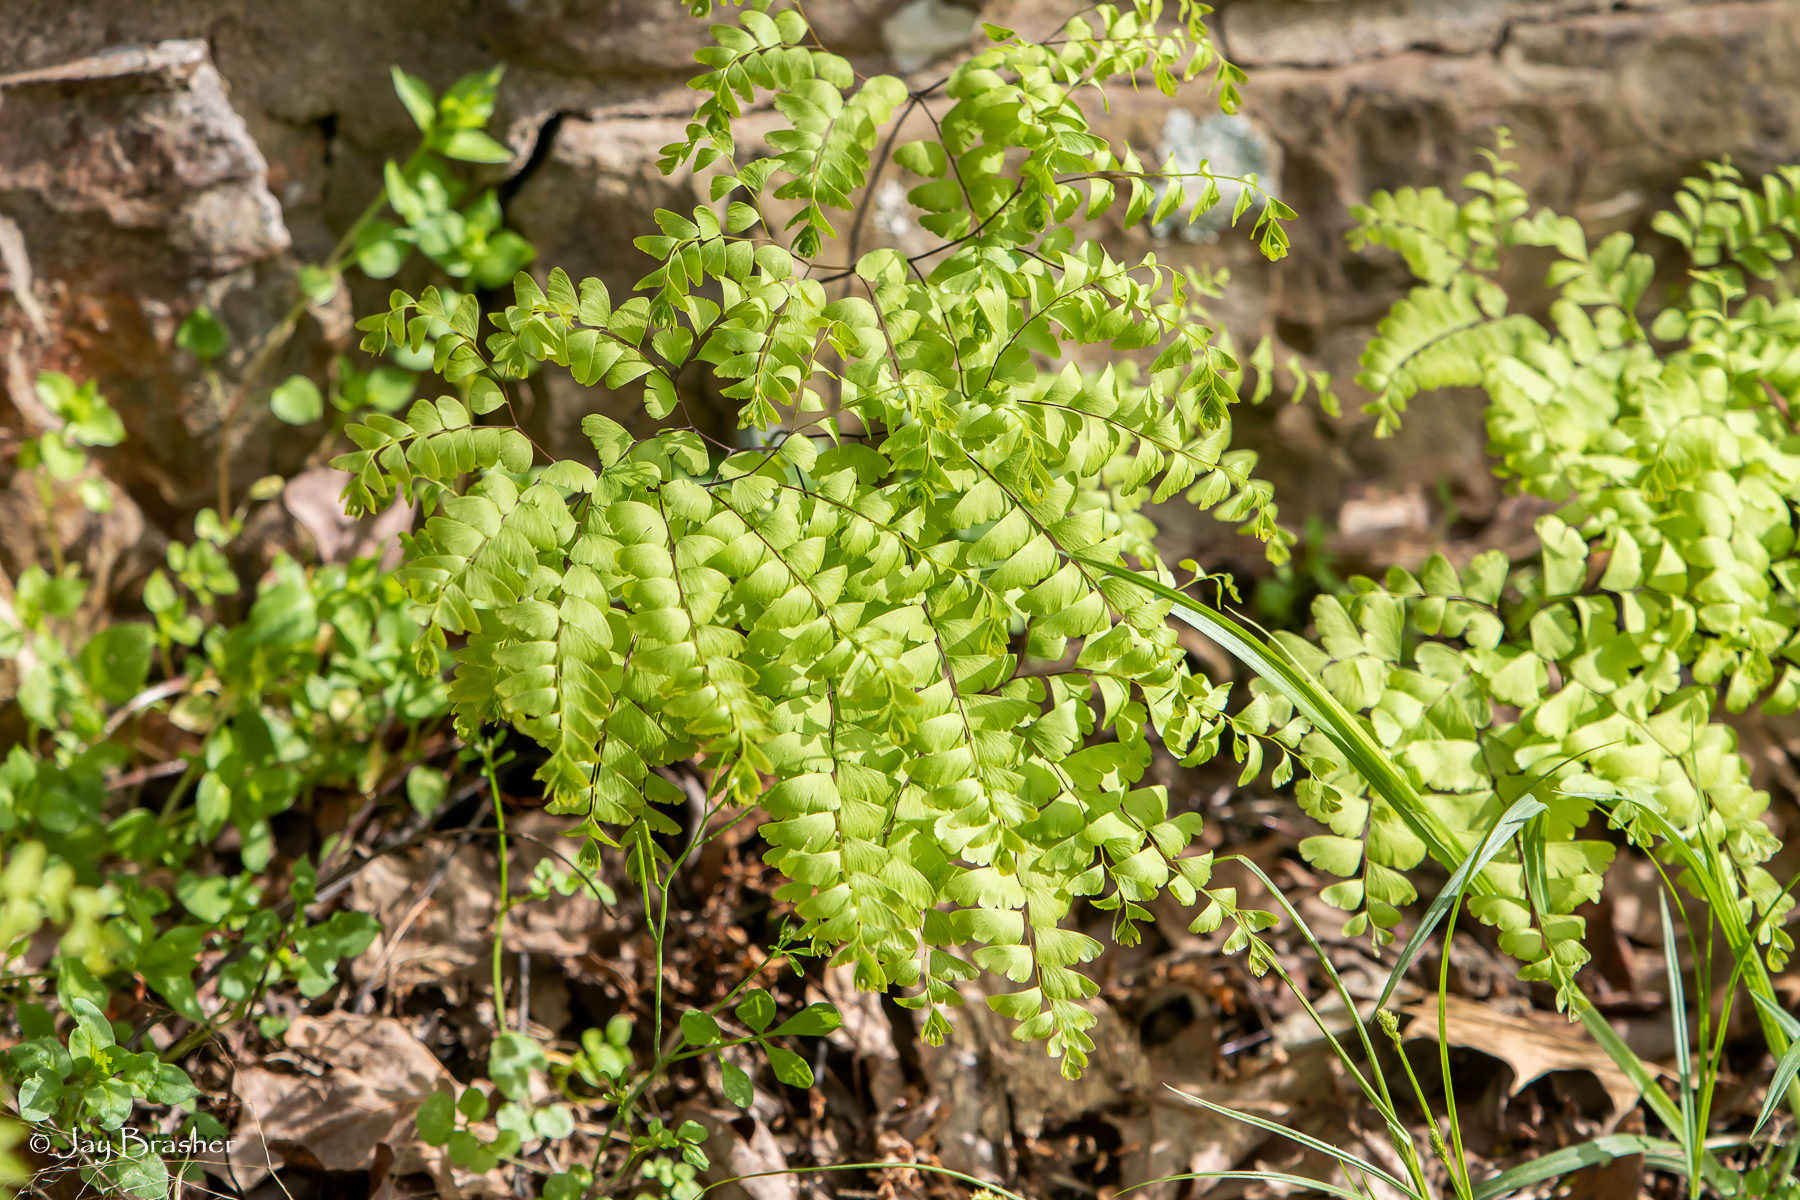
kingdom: Plantae
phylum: Tracheophyta
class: Polypodiopsida
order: Polypodiales
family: Pteridaceae
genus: Adiantum
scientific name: Adiantum pedatum
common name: Five-finger fern
